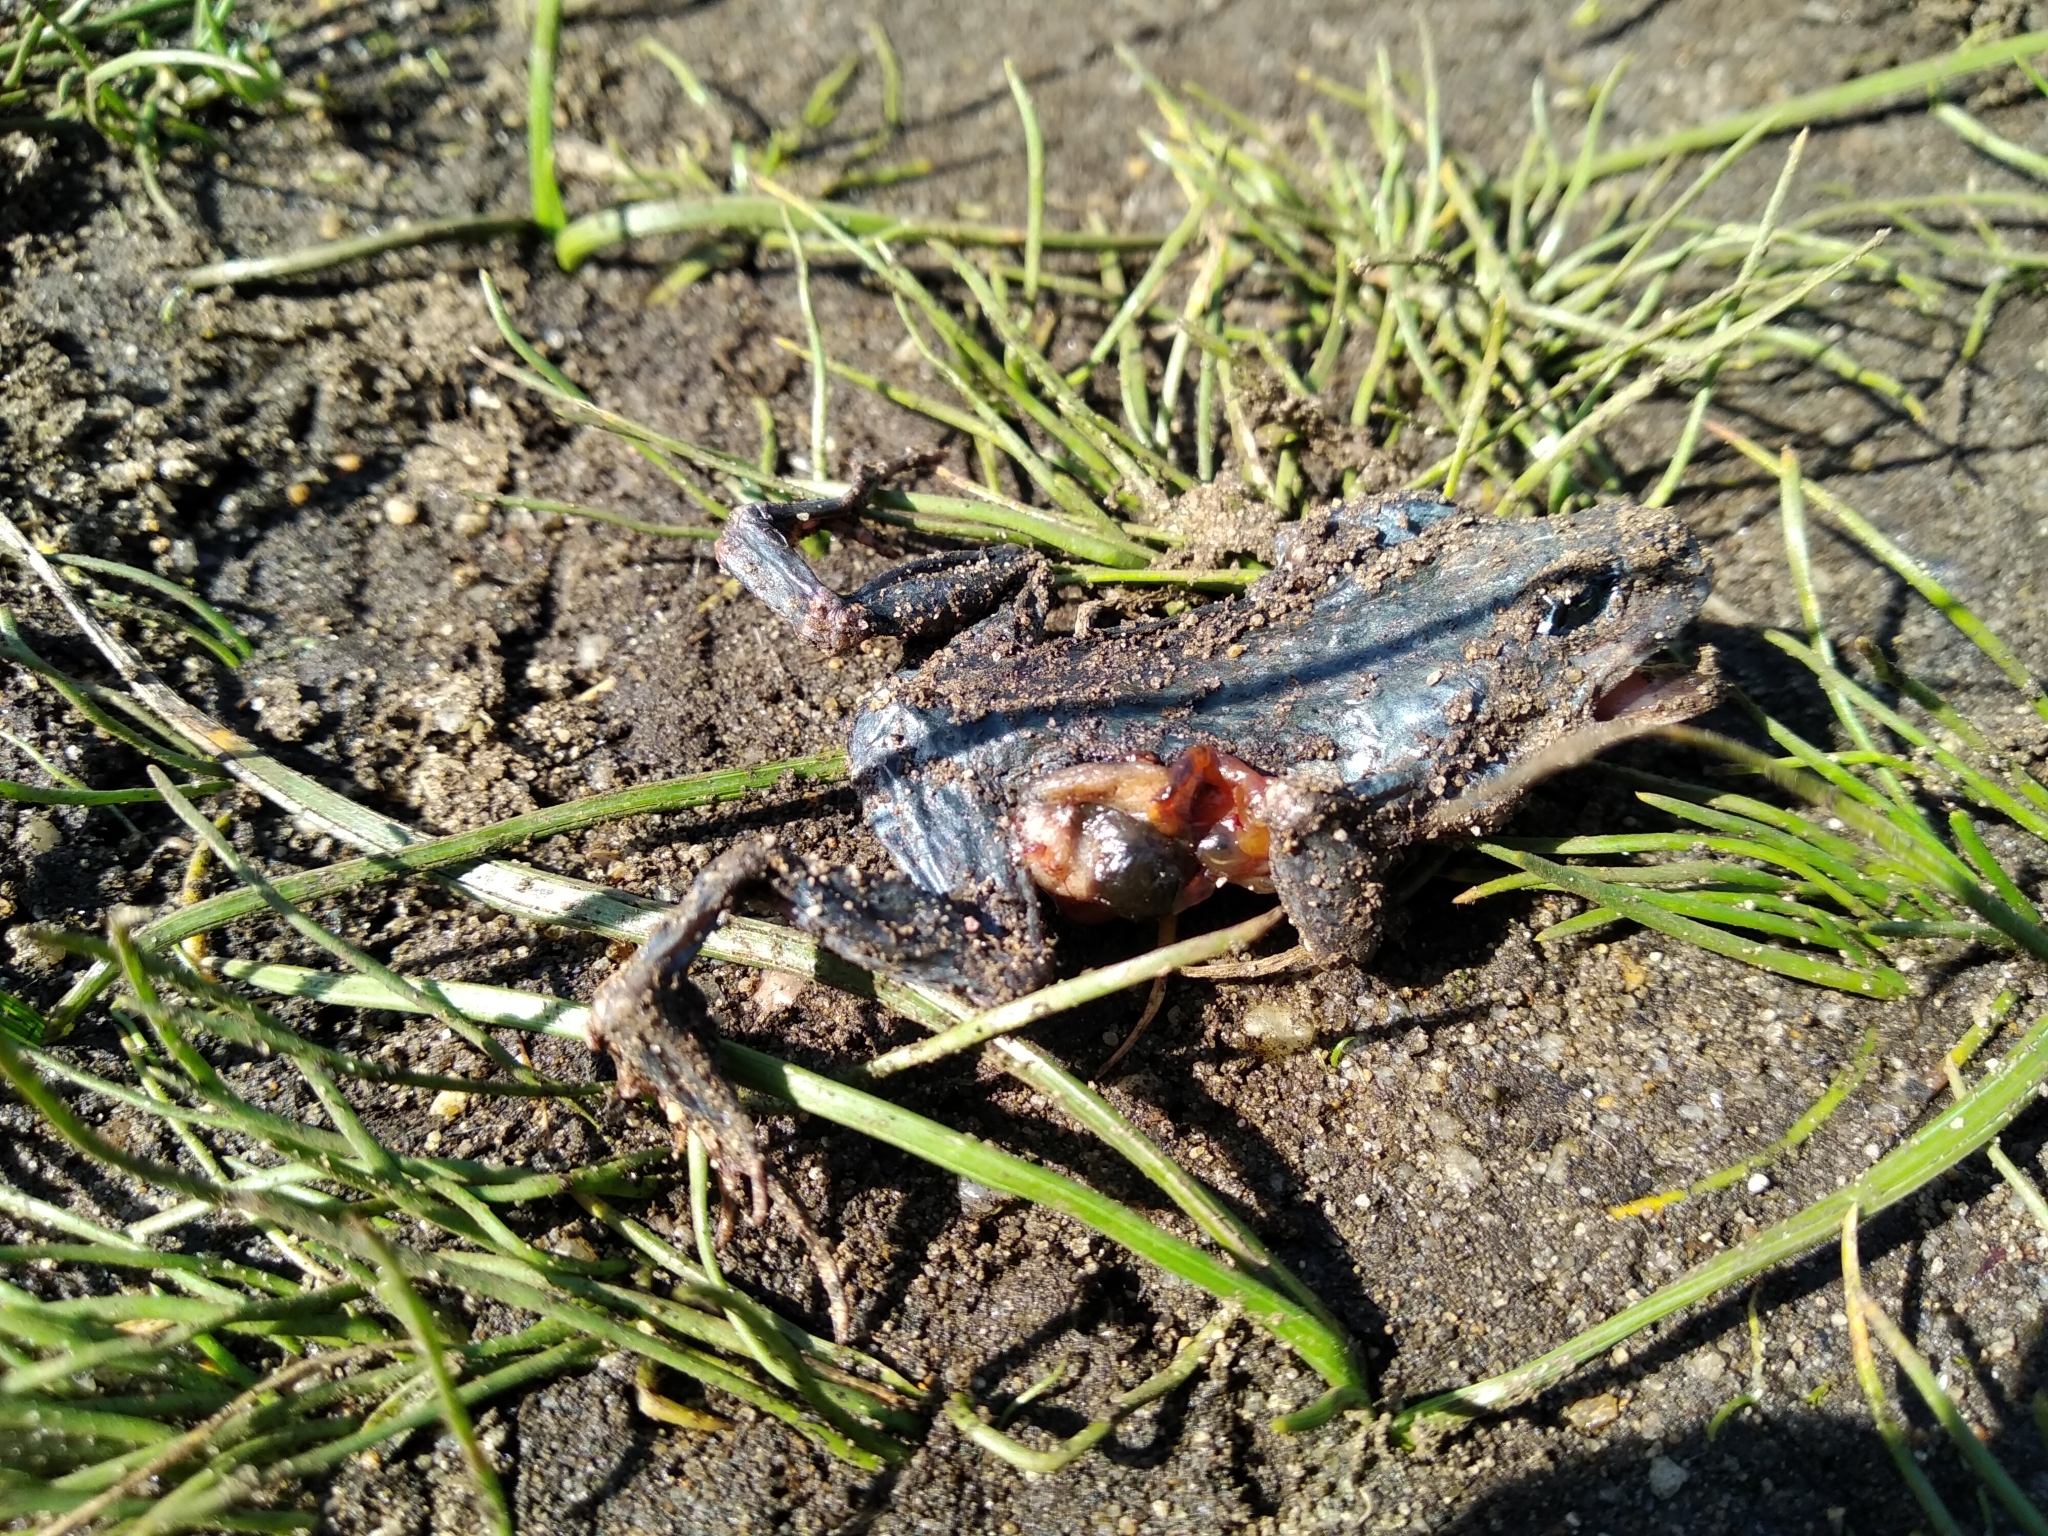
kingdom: Animalia
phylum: Chordata
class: Amphibia
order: Anura
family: Bufonidae
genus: Vandijkophrynus
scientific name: Vandijkophrynus angusticeps
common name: Sand toad
